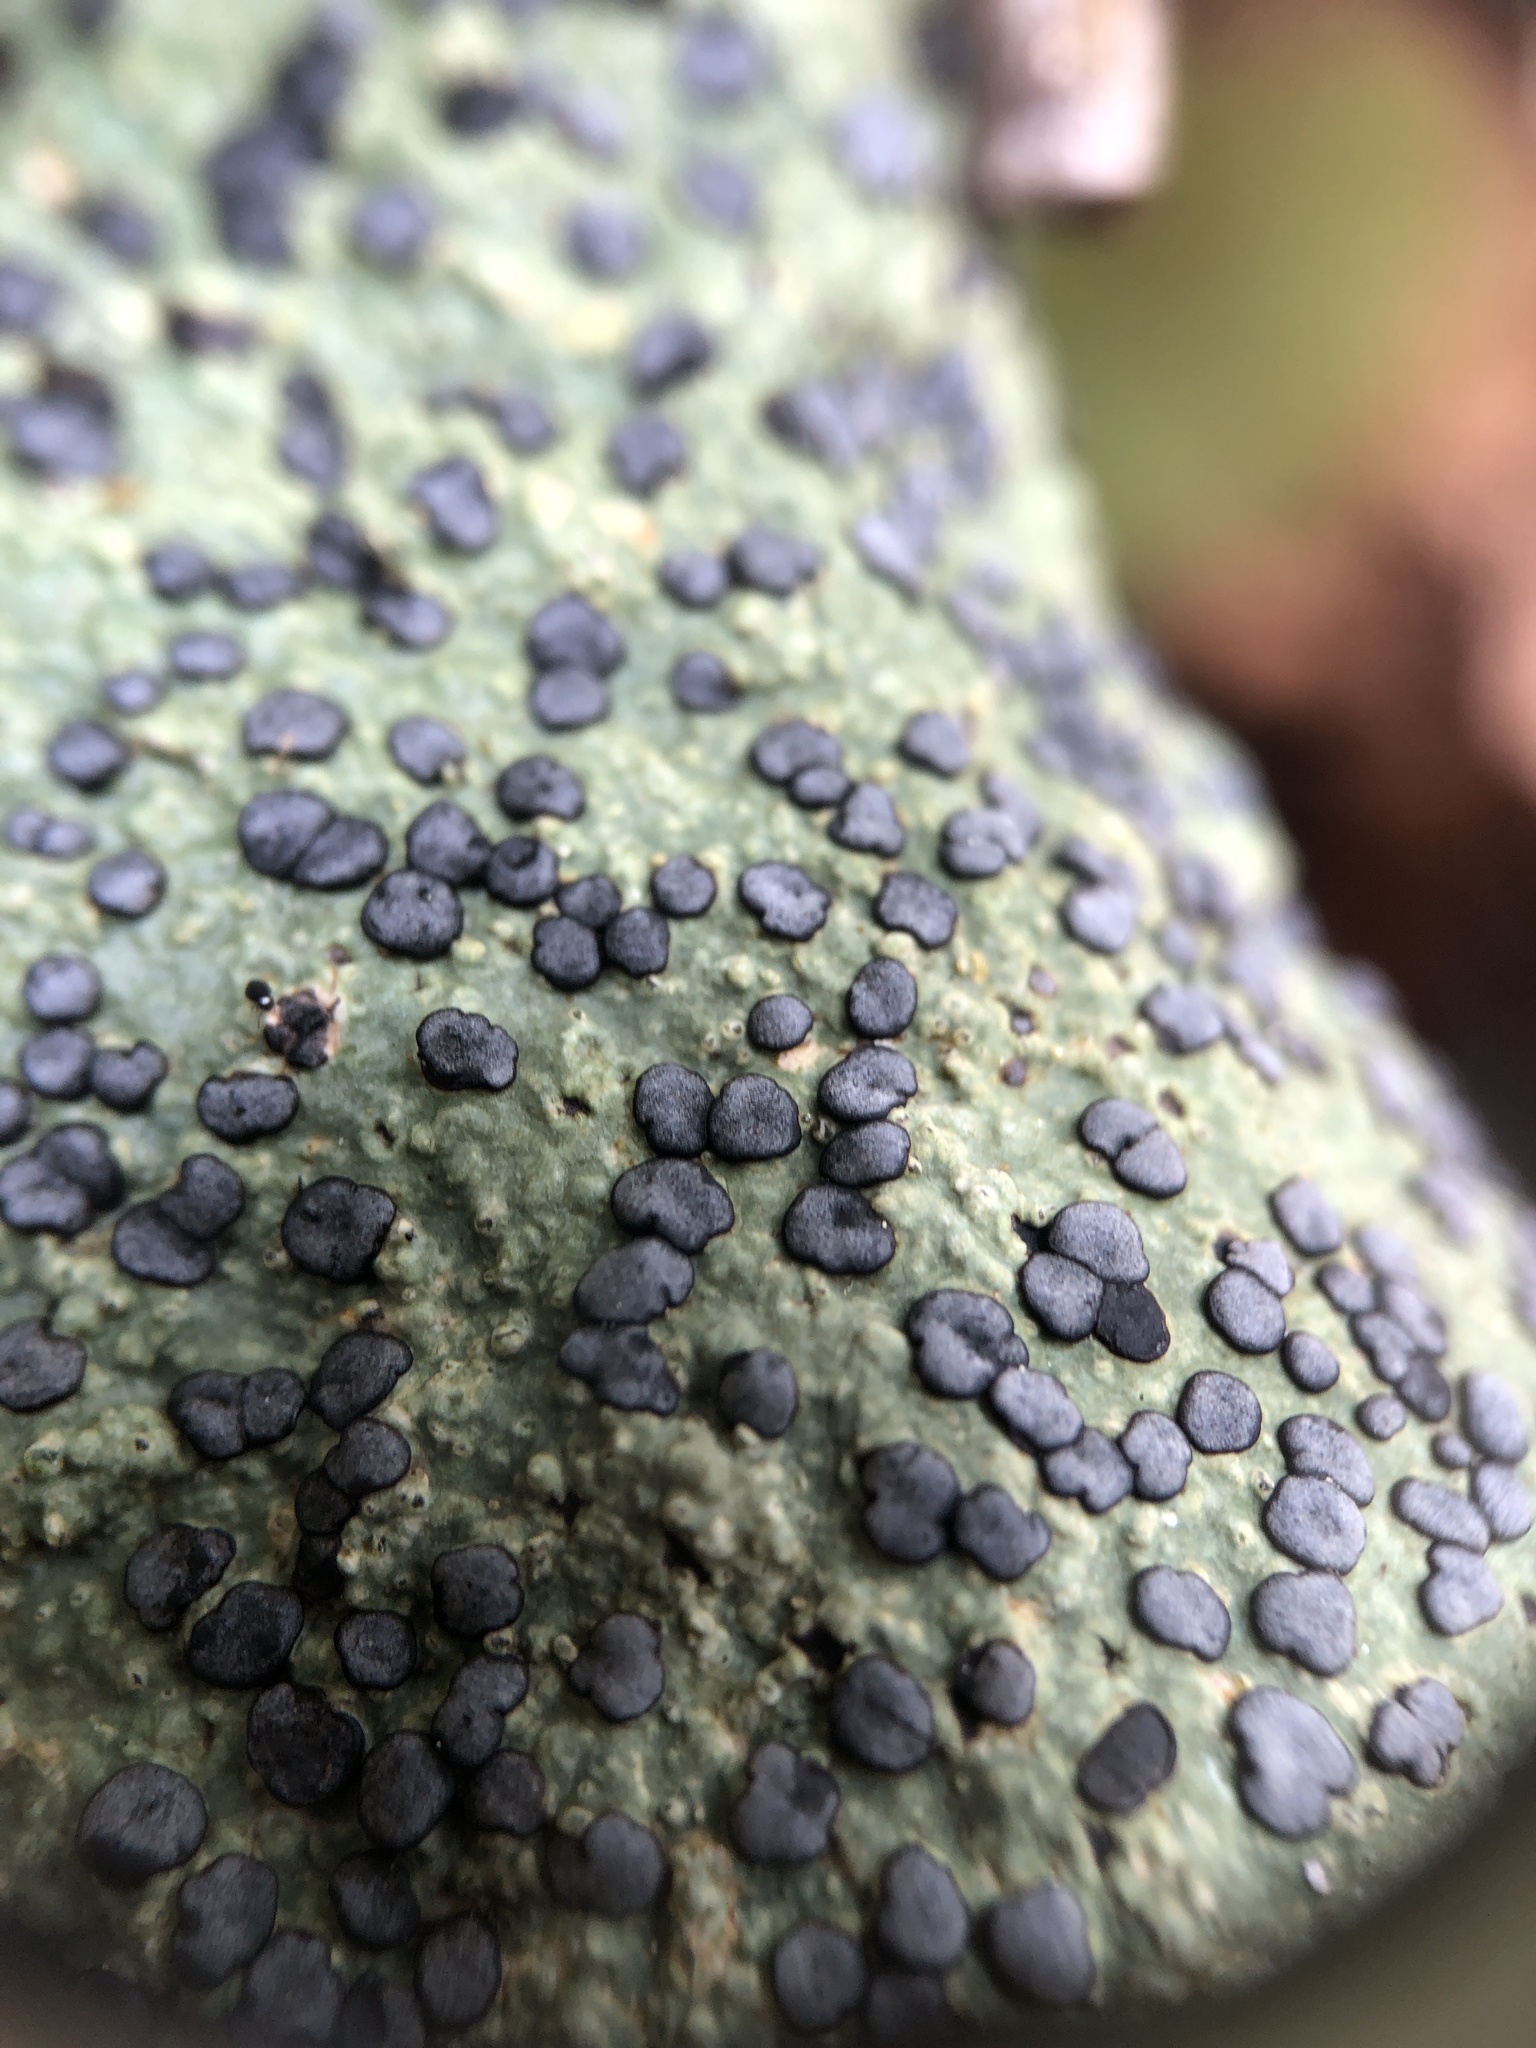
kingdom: Fungi
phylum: Ascomycota
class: Lecanoromycetes
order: Lecideales
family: Lecideaceae
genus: Porpidia
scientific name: Porpidia albocaerulescens
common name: Smokey-eyed boulder lichen
